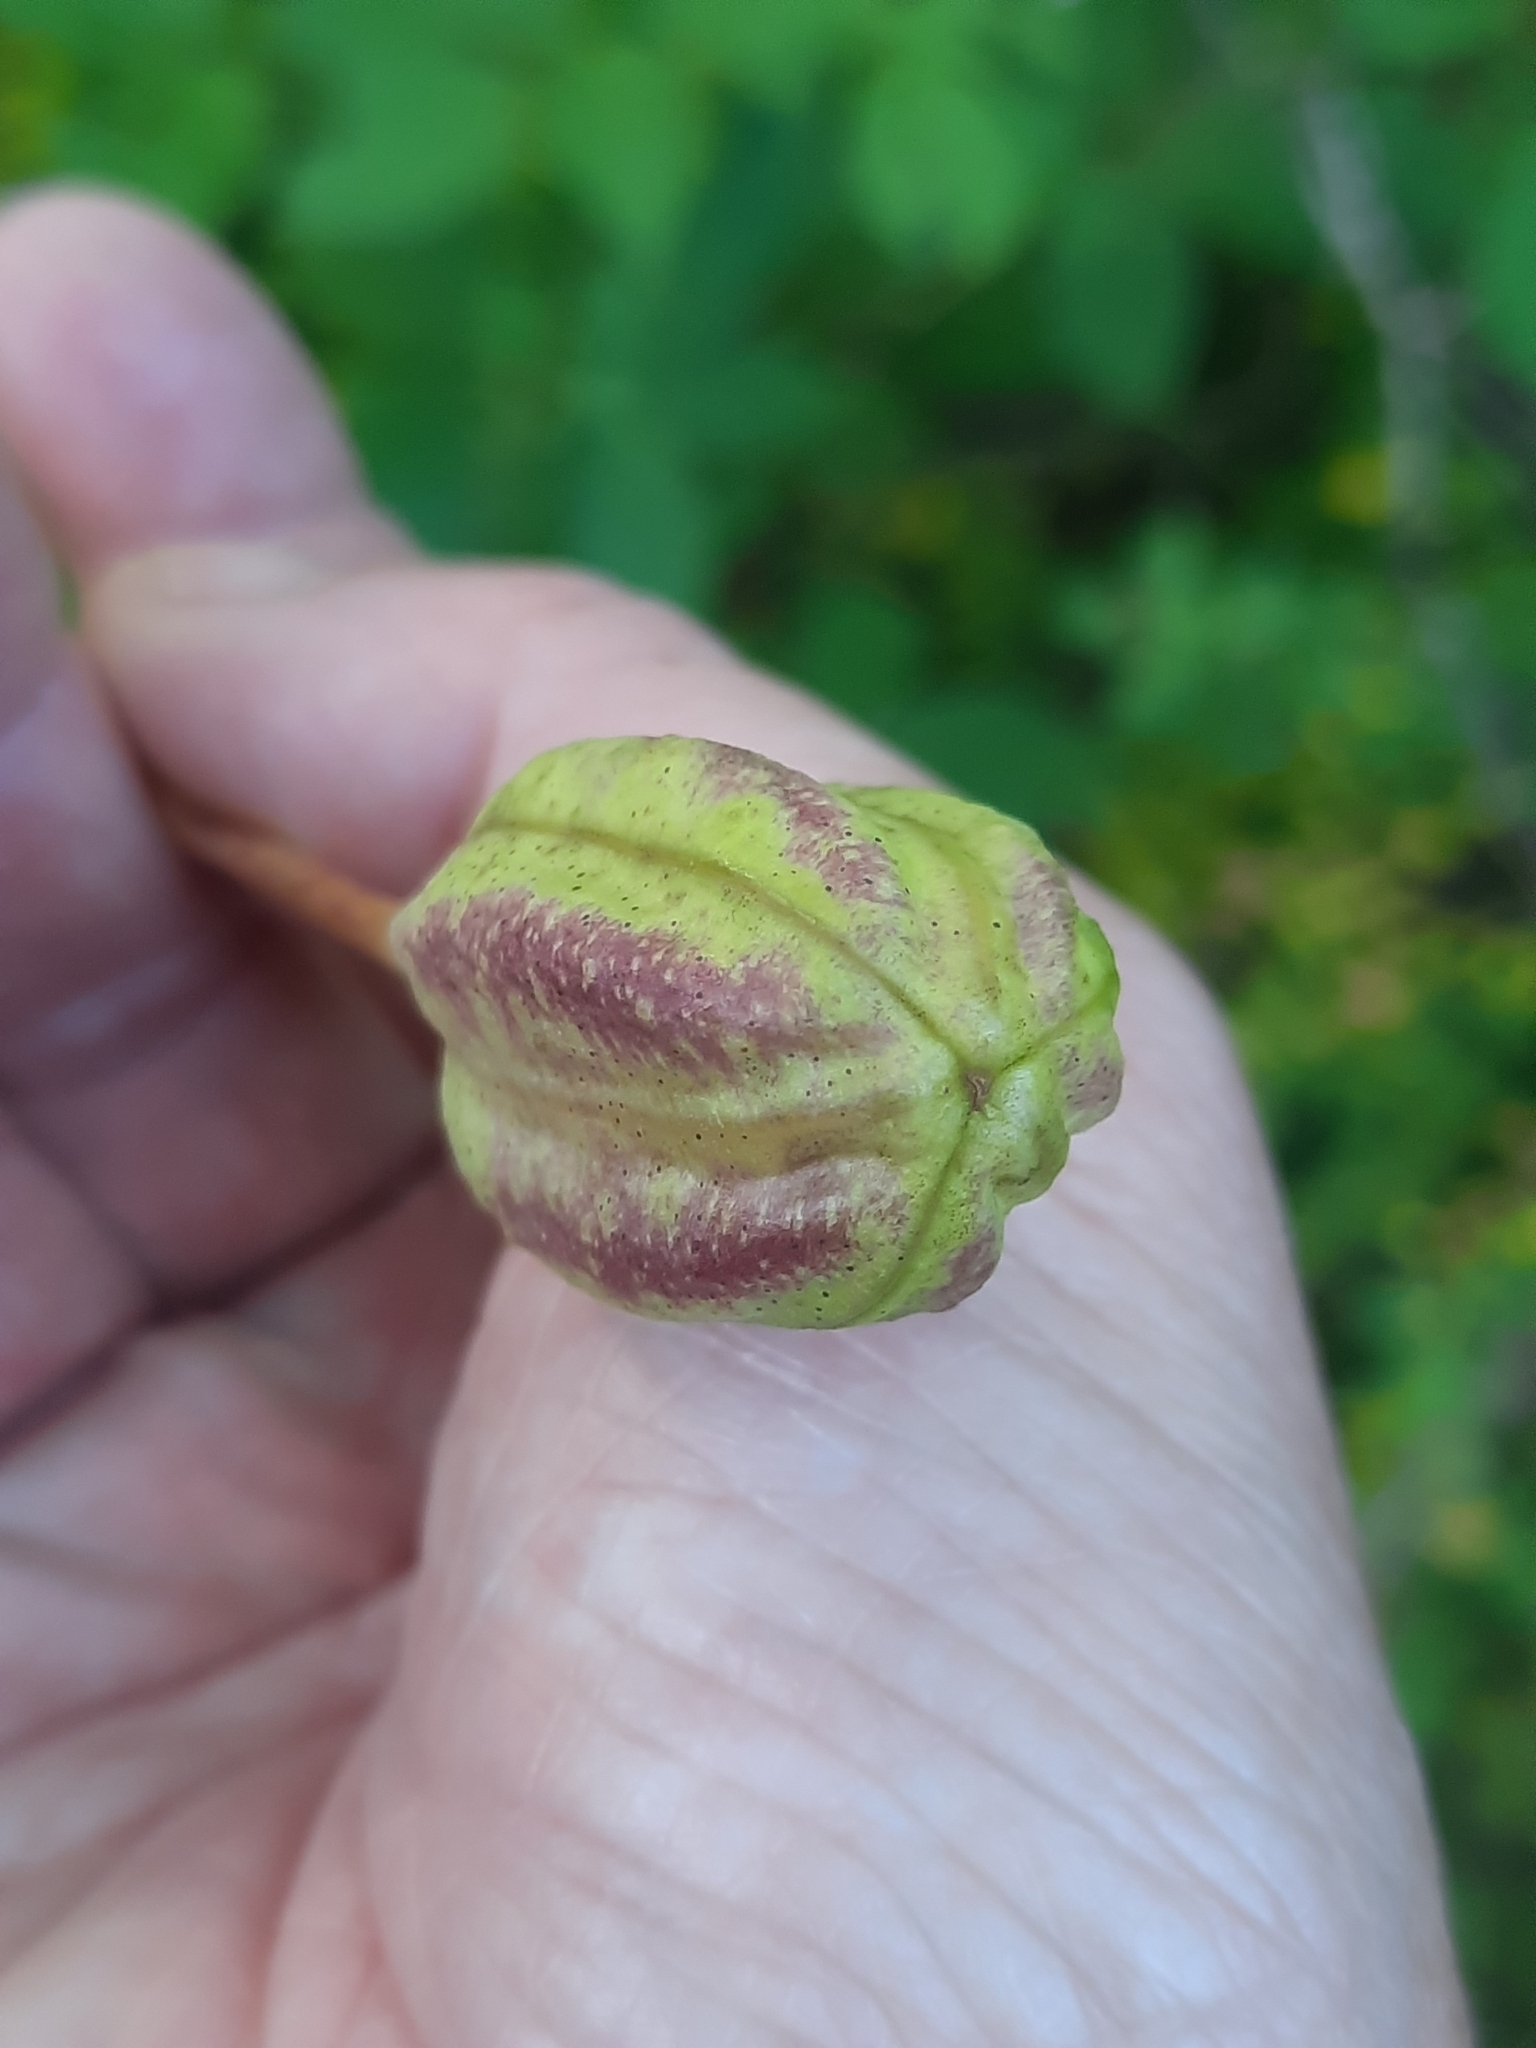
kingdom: Plantae
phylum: Tracheophyta
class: Liliopsida
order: Liliales
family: Liliaceae
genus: Lilium
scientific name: Lilium canadense
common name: Canada lily
